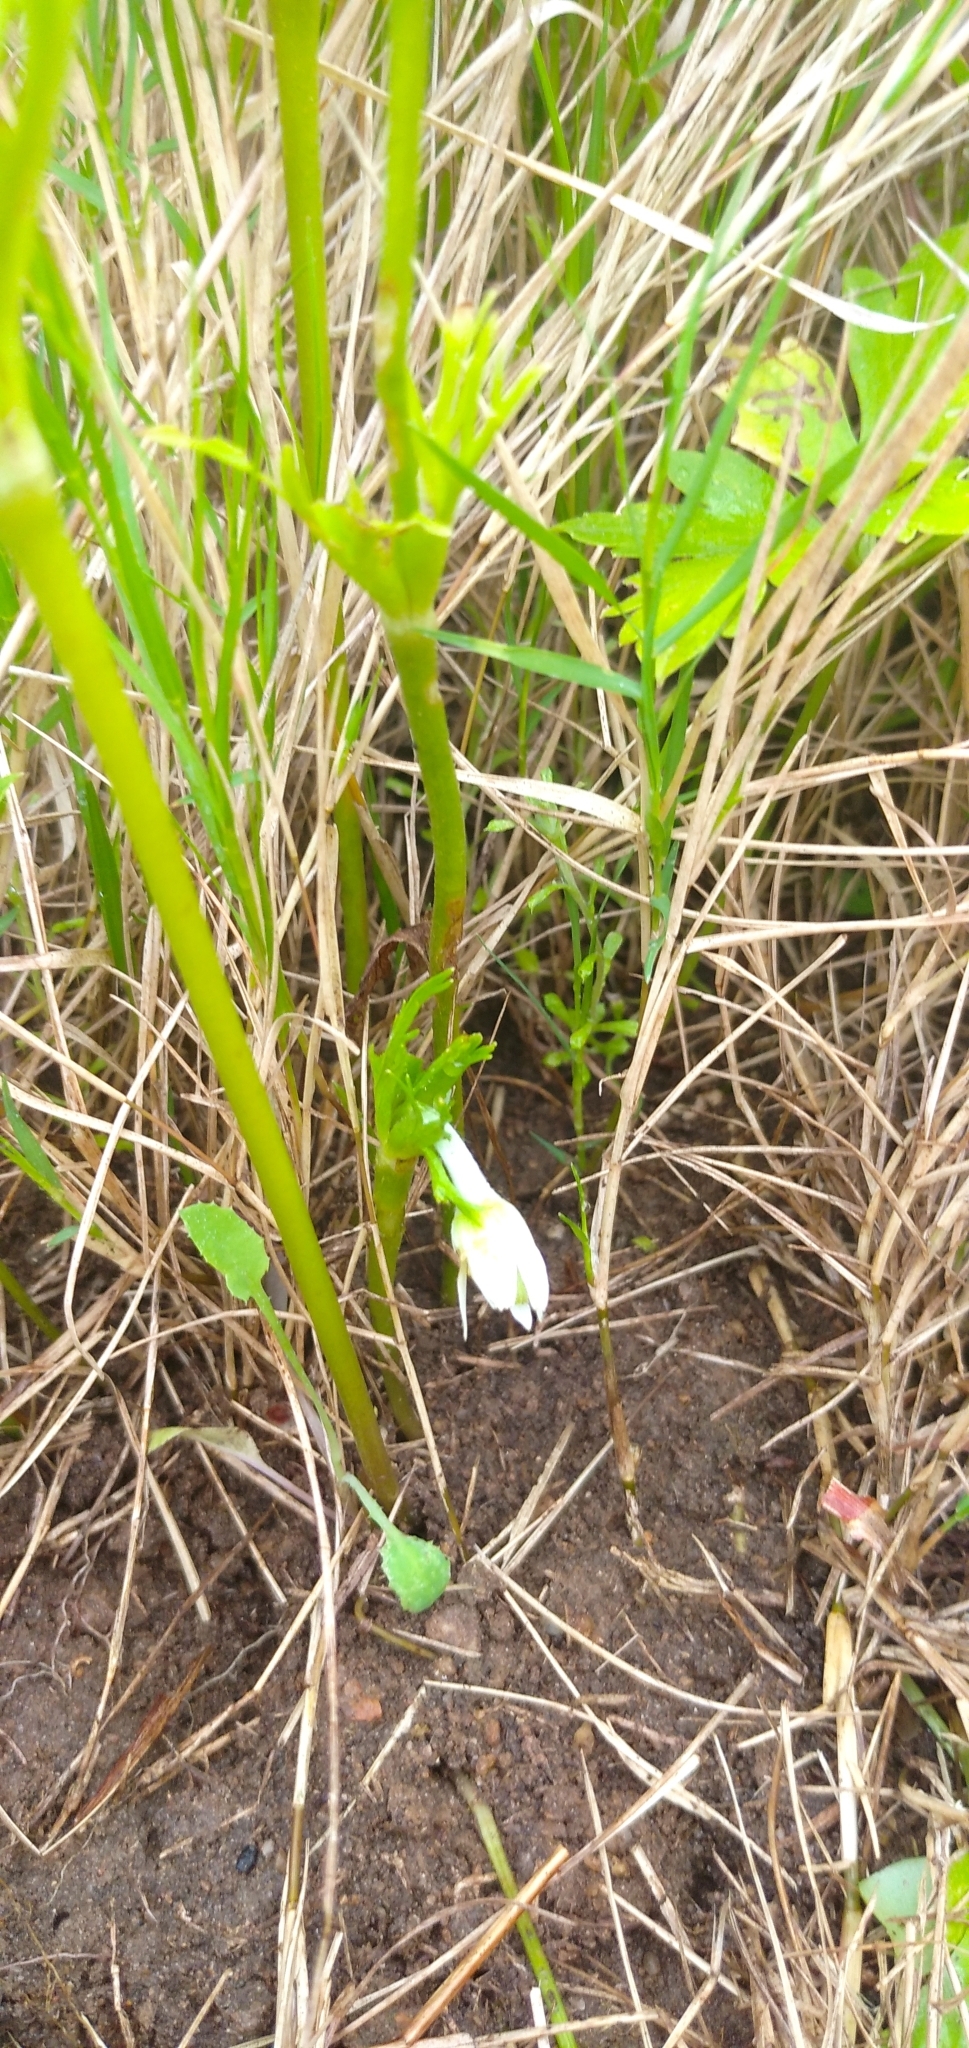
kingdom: Plantae
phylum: Tracheophyta
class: Magnoliopsida
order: Ranunculales
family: Ranunculaceae
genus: Anemone
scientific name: Anemone decapetala
